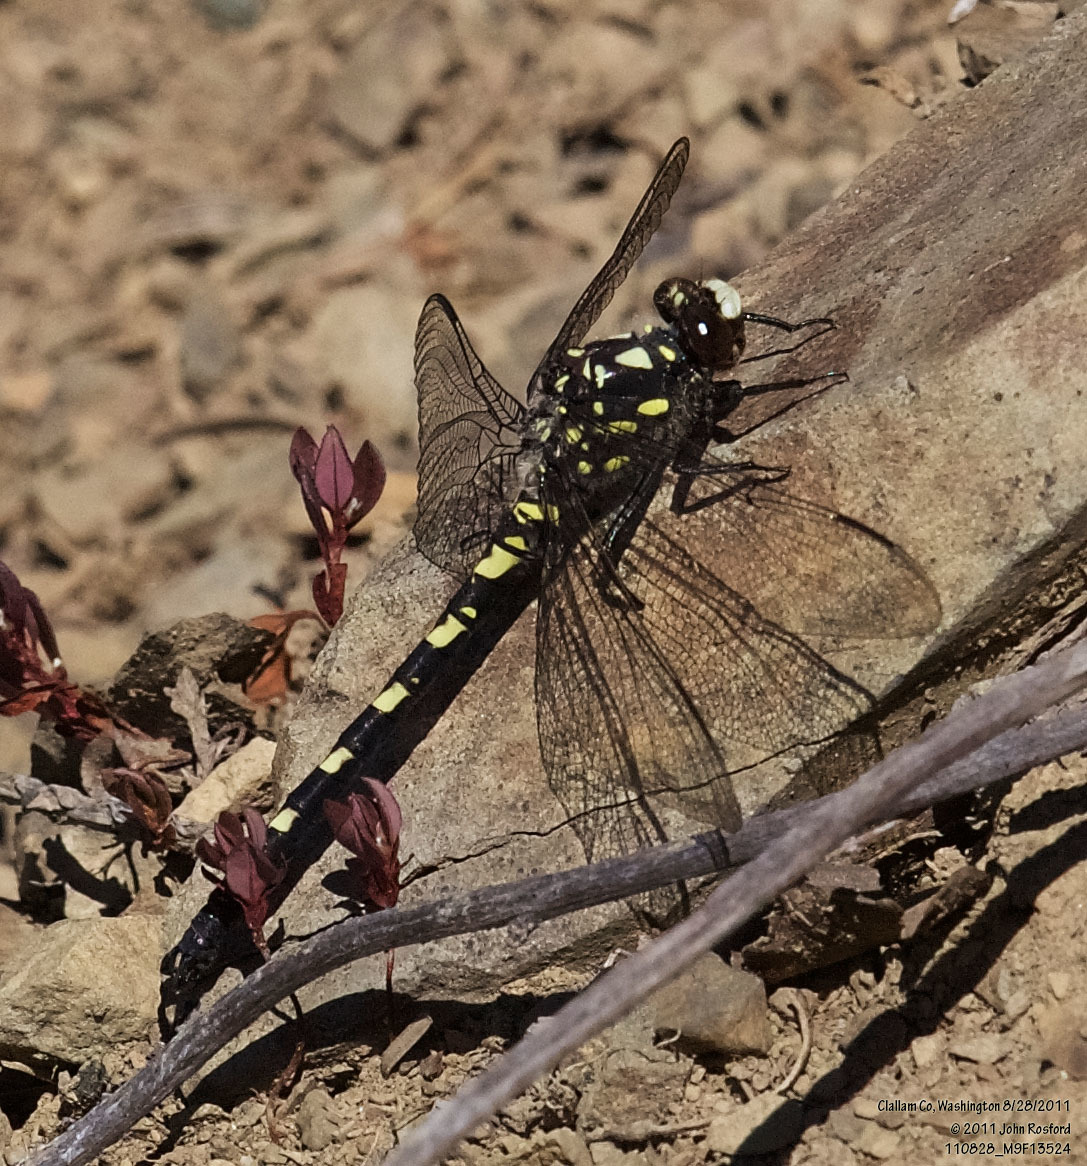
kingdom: Animalia
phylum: Arthropoda
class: Insecta
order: Odonata
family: Petaluridae
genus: Tanypteryx
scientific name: Tanypteryx hageni
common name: Black petaltail
